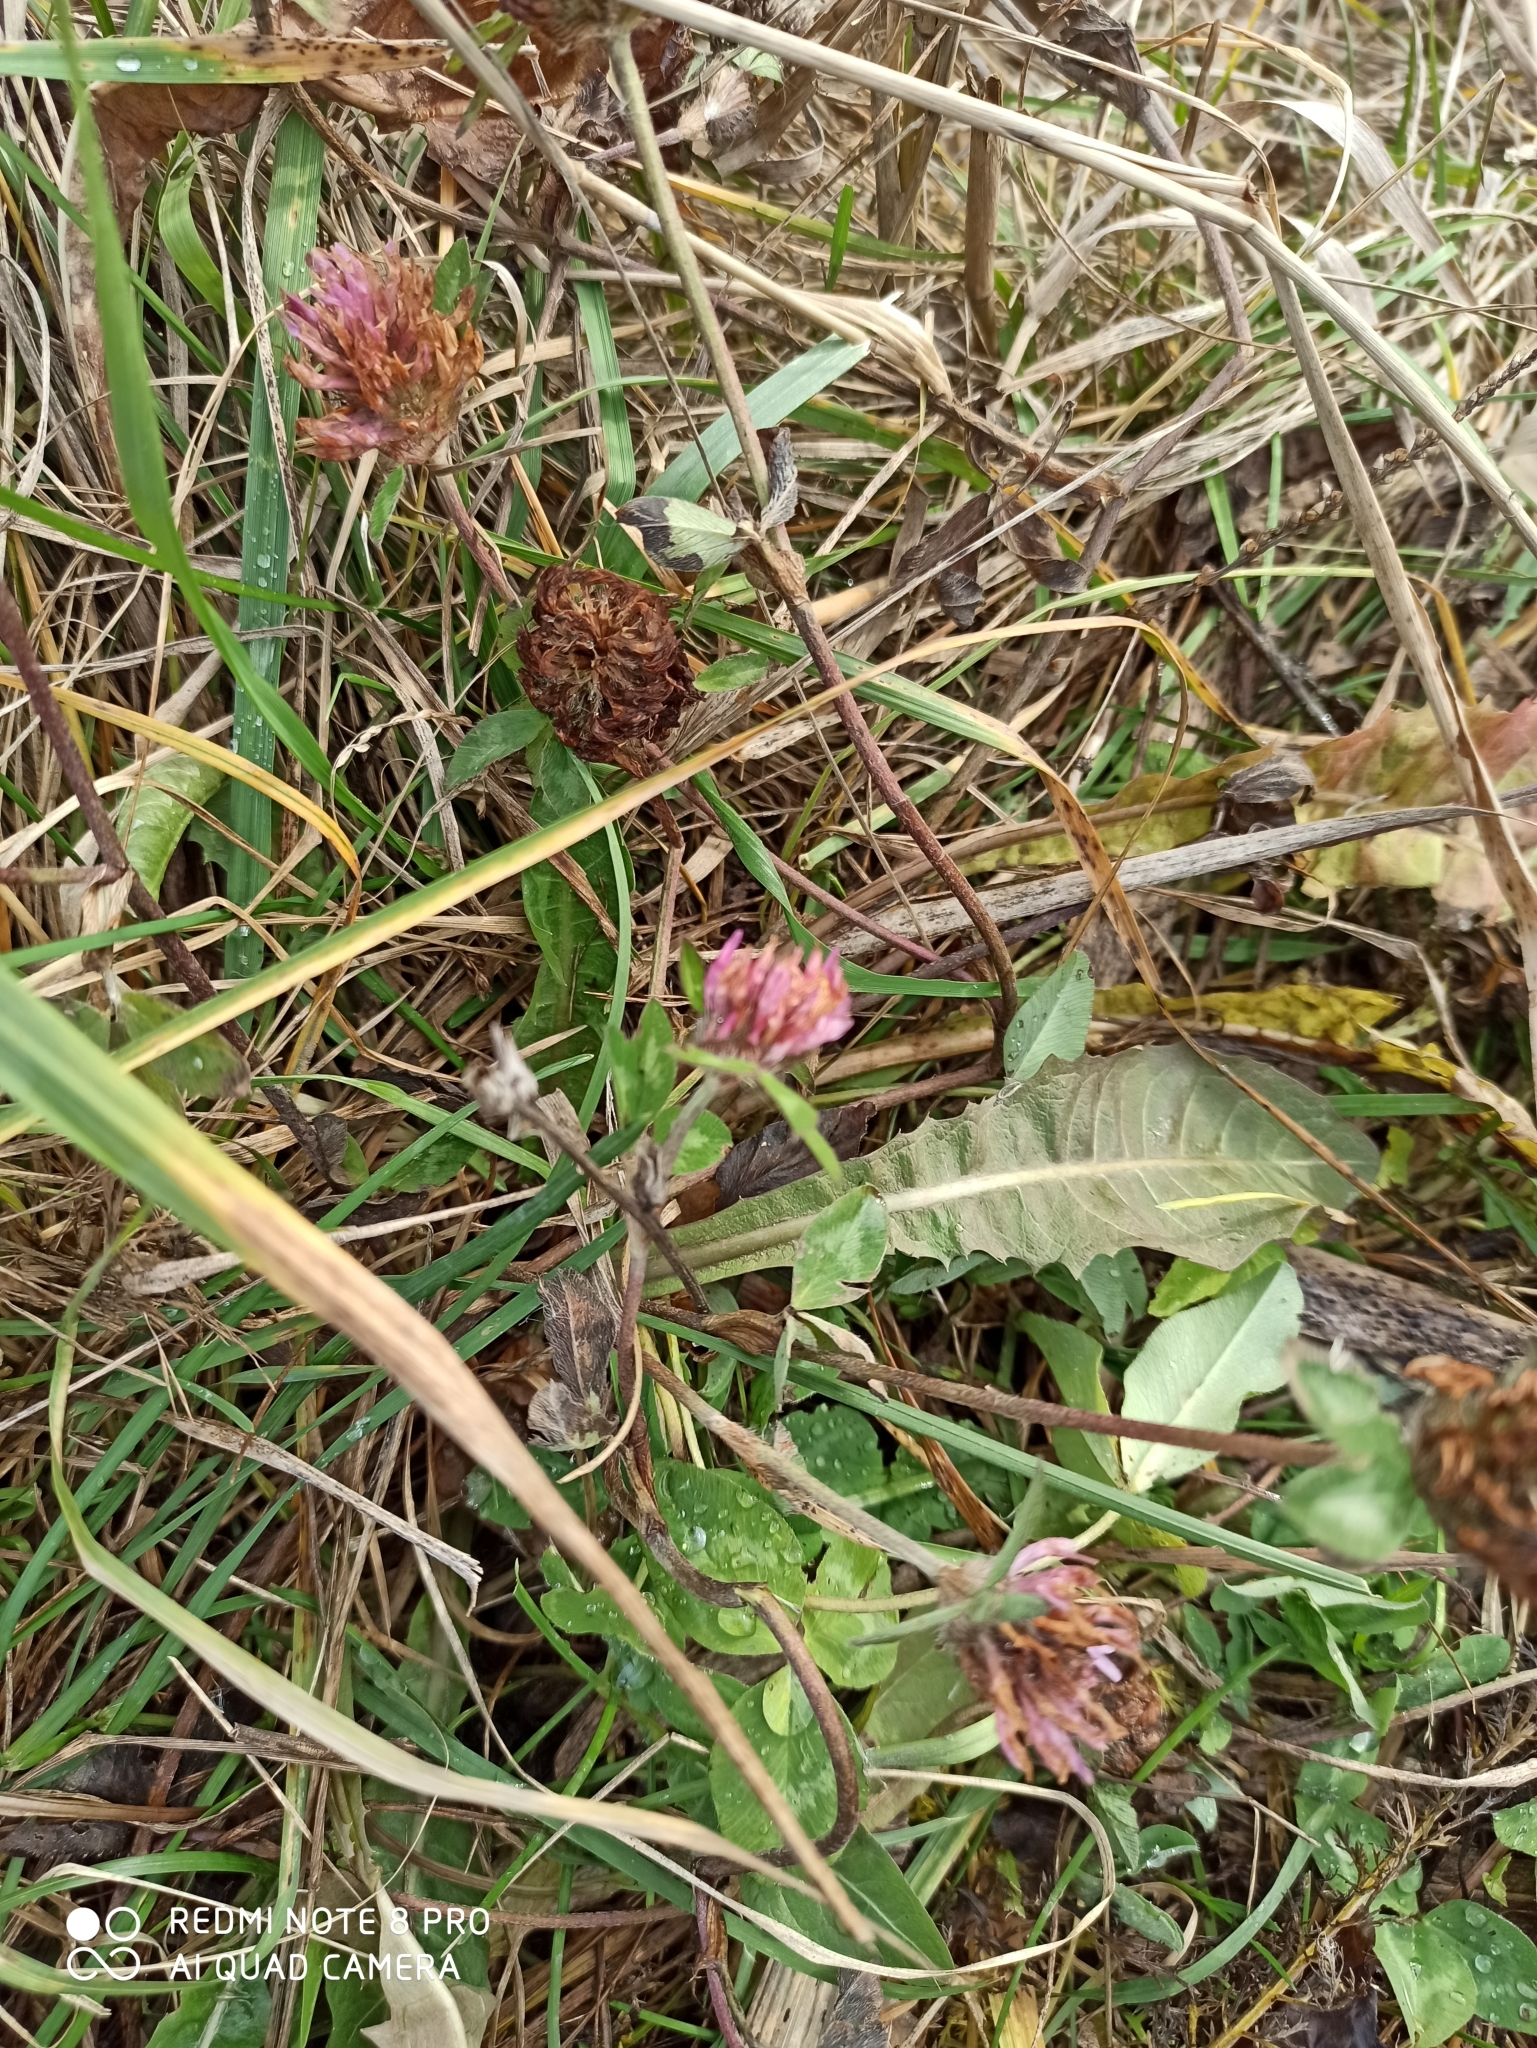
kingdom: Plantae
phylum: Tracheophyta
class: Magnoliopsida
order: Fabales
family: Fabaceae
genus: Trifolium
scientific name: Trifolium pratense
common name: Red clover
